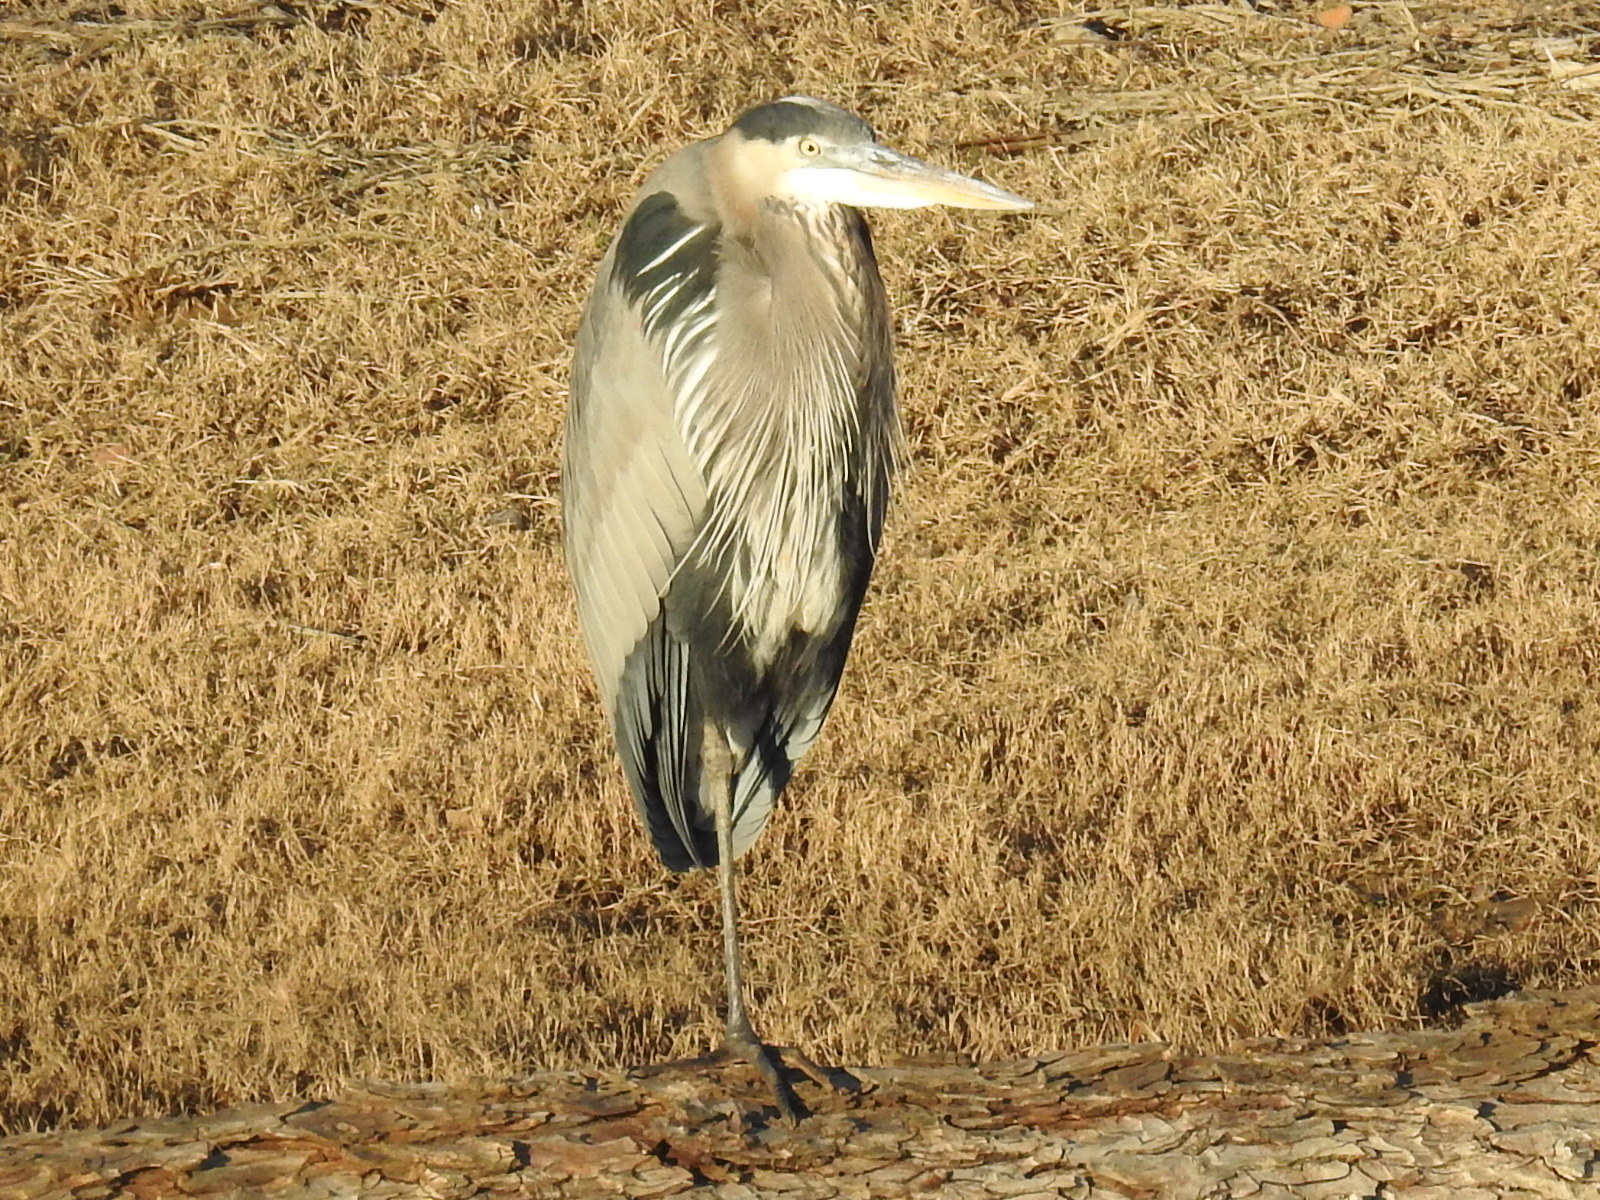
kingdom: Animalia
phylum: Chordata
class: Aves
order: Pelecaniformes
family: Ardeidae
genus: Ardea
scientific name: Ardea herodias
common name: Great blue heron
